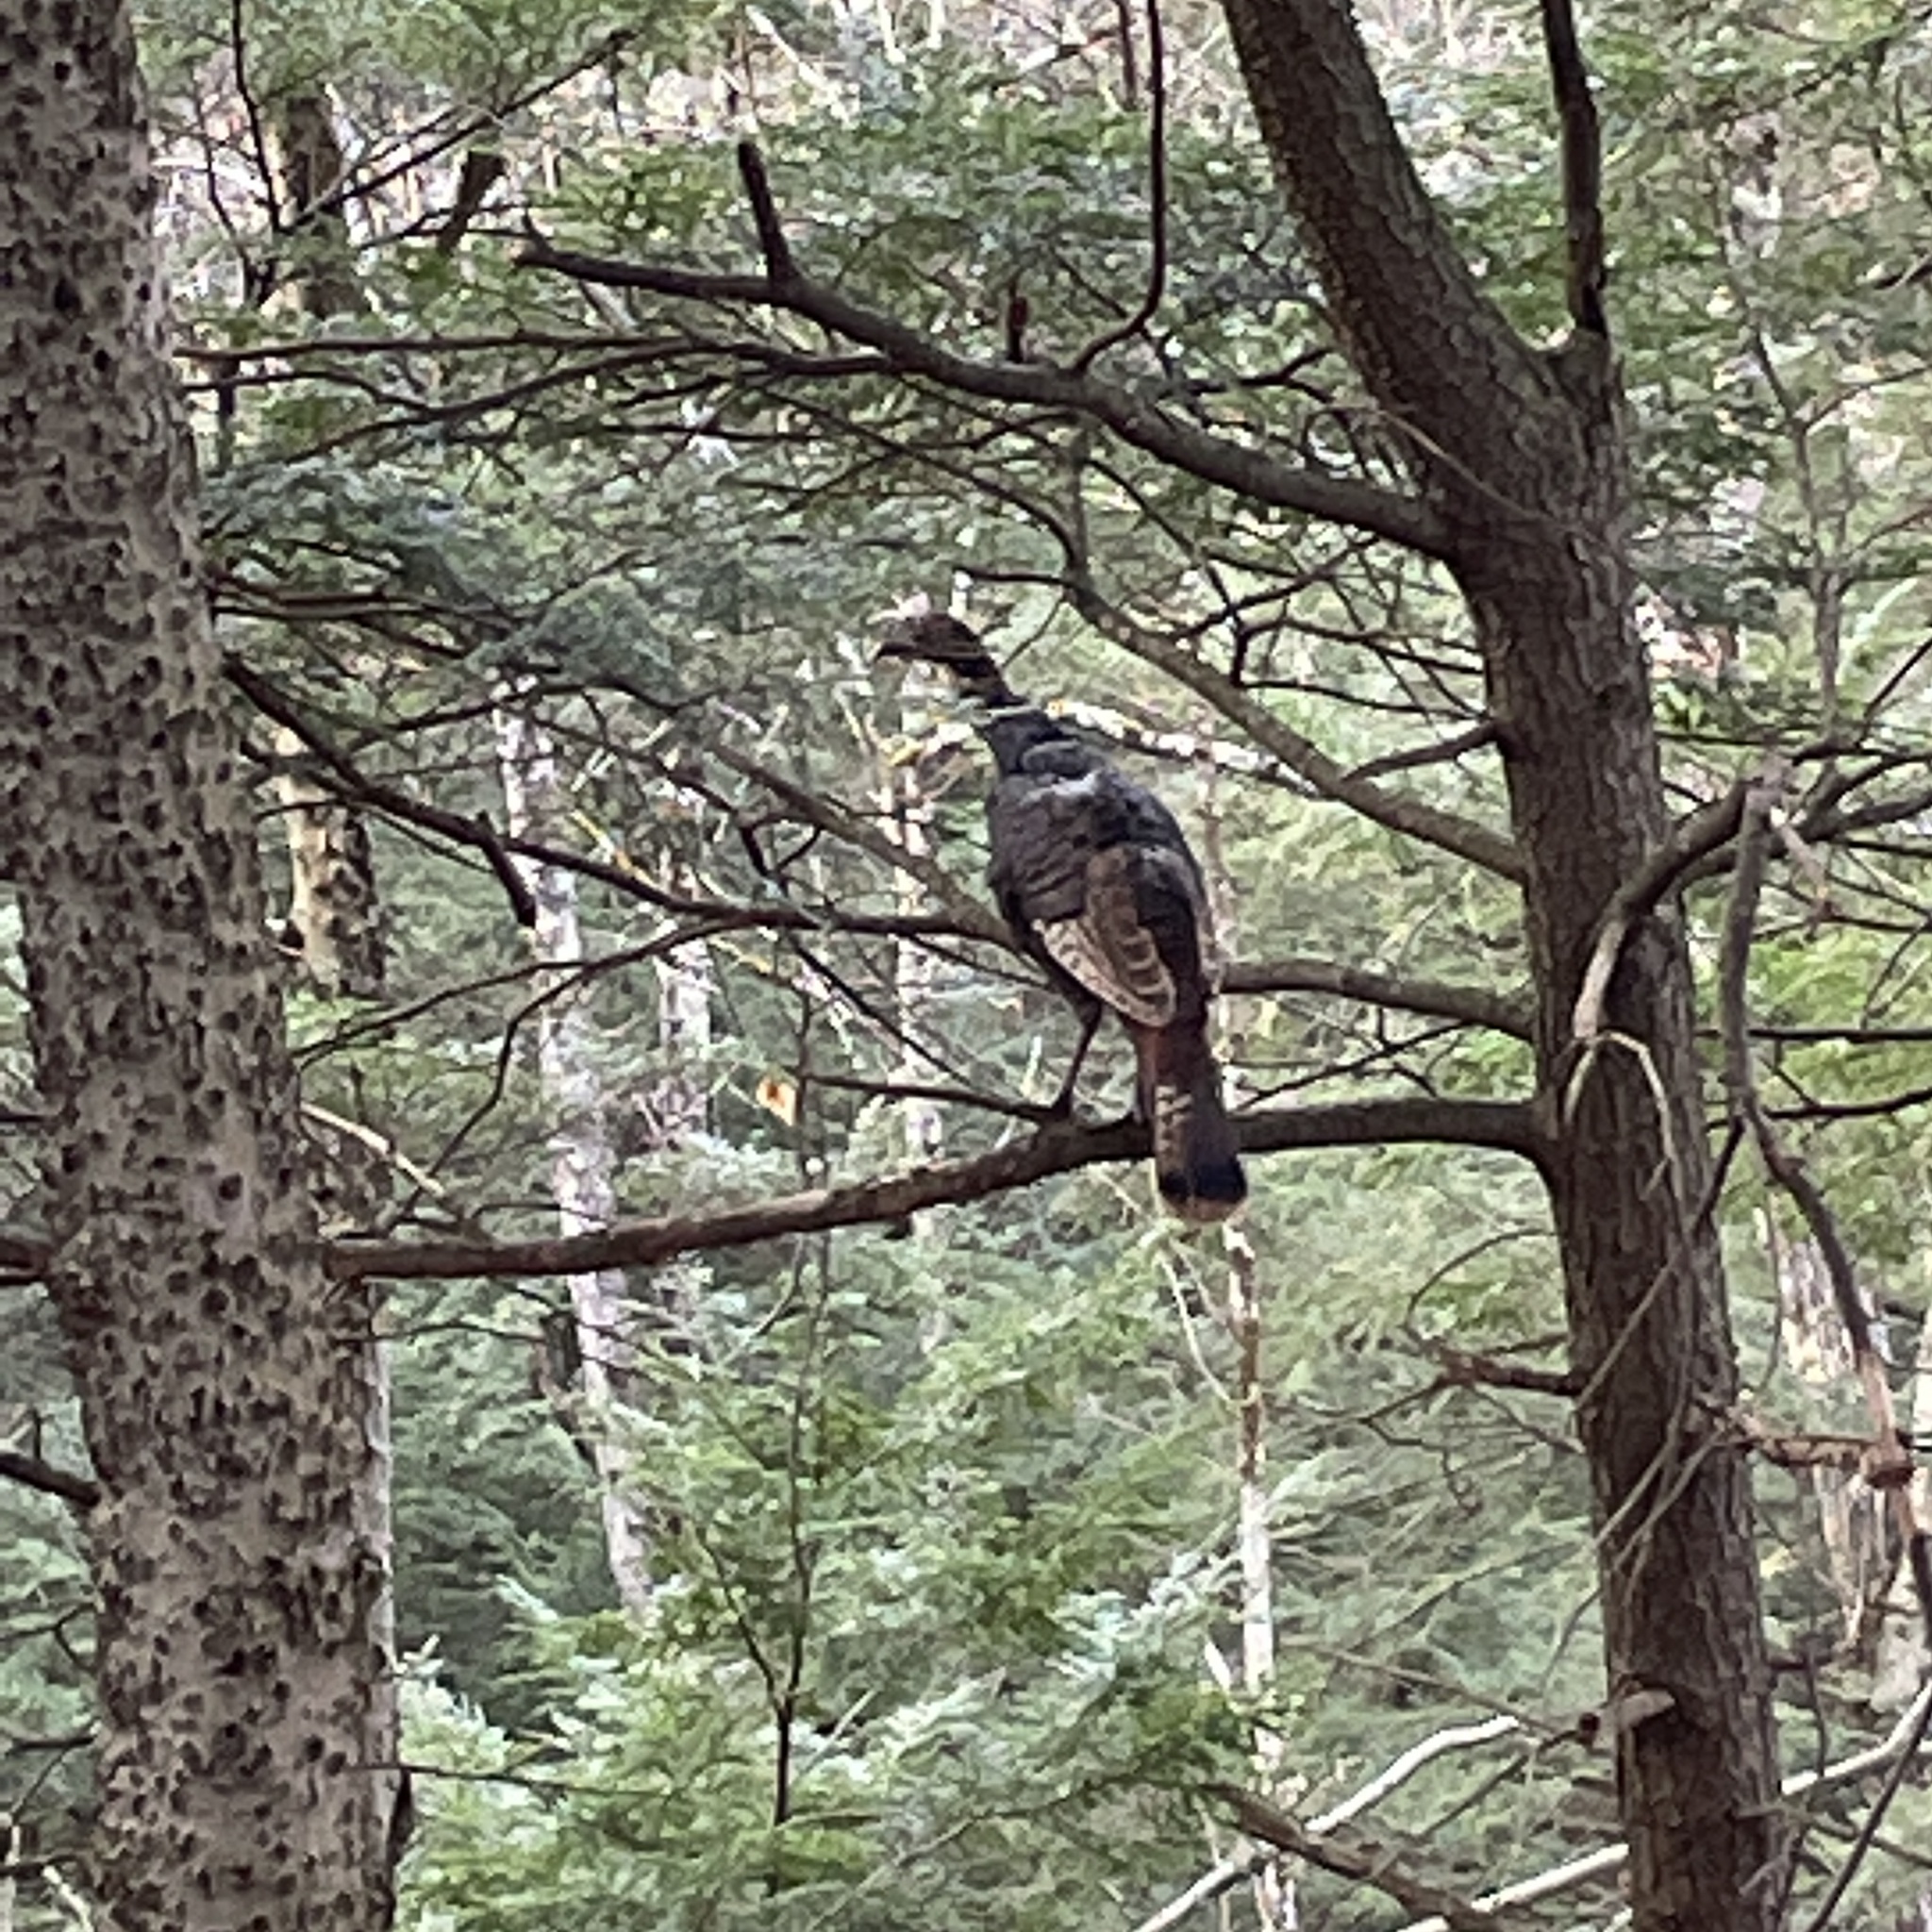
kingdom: Animalia
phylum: Chordata
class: Aves
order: Galliformes
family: Phasianidae
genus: Meleagris
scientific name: Meleagris gallopavo
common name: Wild turkey
